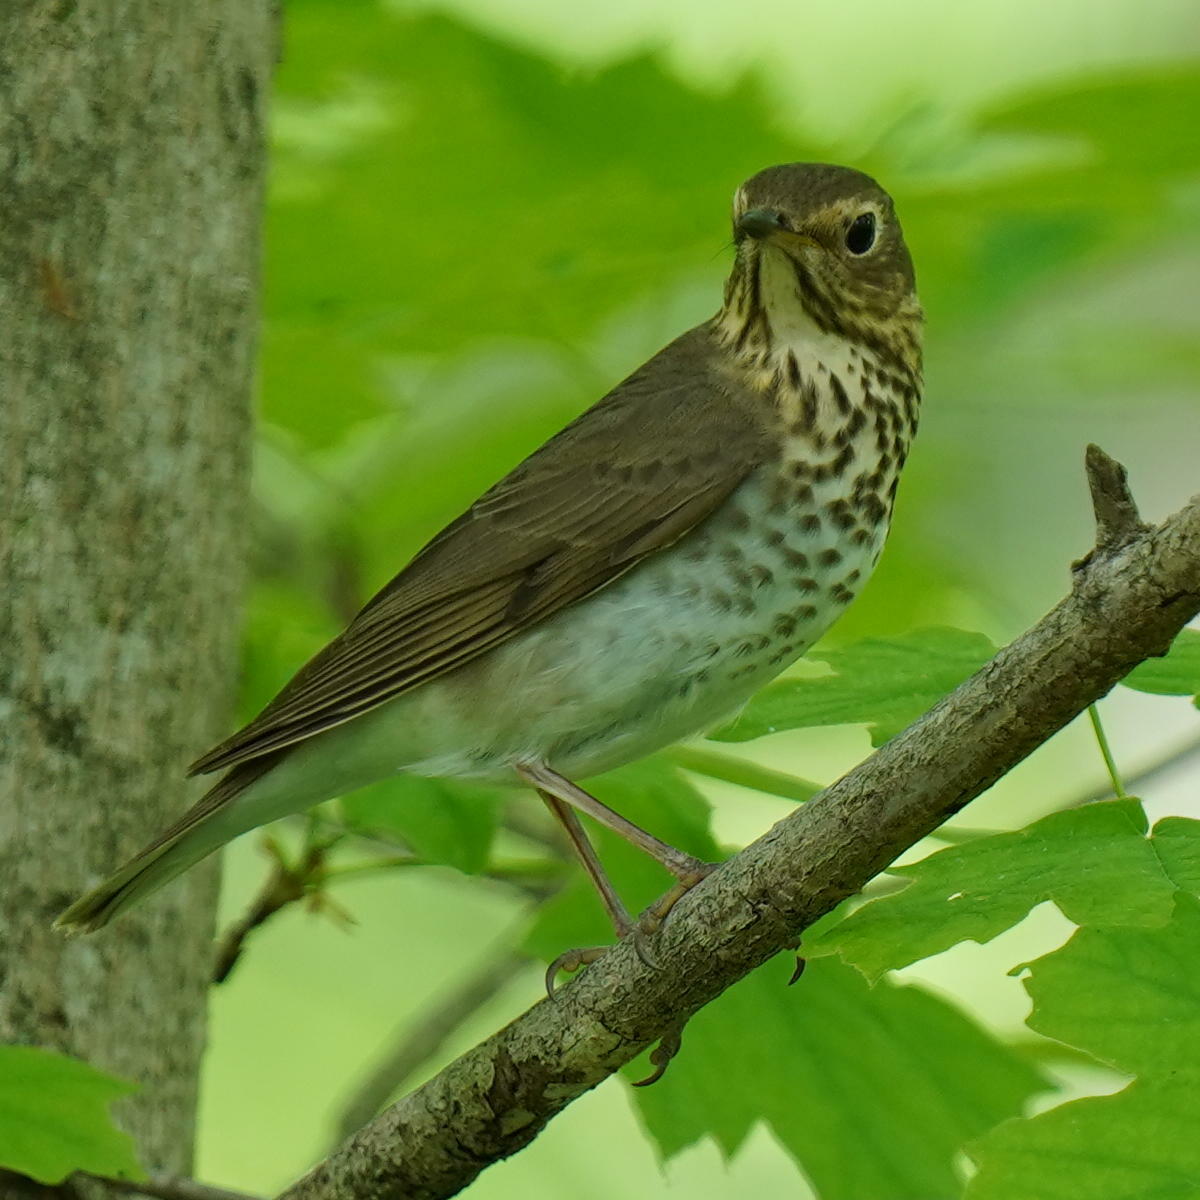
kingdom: Animalia
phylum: Chordata
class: Aves
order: Passeriformes
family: Turdidae
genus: Catharus
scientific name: Catharus ustulatus
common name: Swainson's thrush
